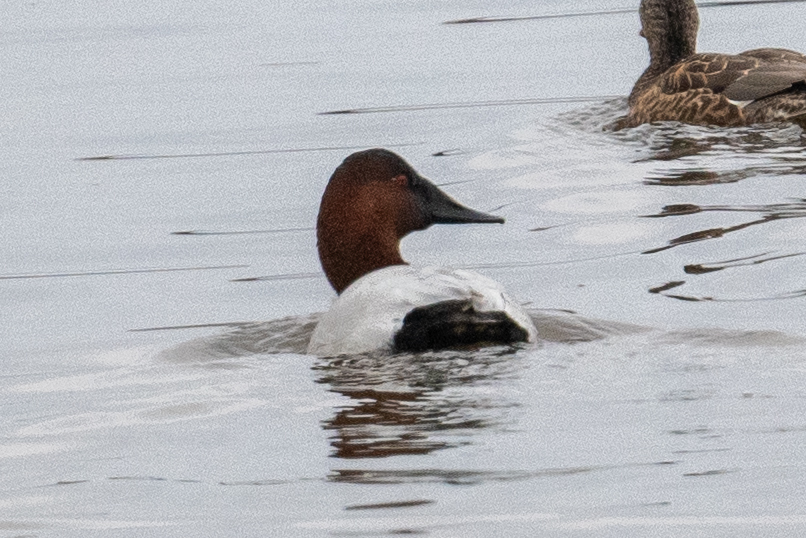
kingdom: Animalia
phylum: Chordata
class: Aves
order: Anseriformes
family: Anatidae
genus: Aythya
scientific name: Aythya valisineria
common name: Canvasback
